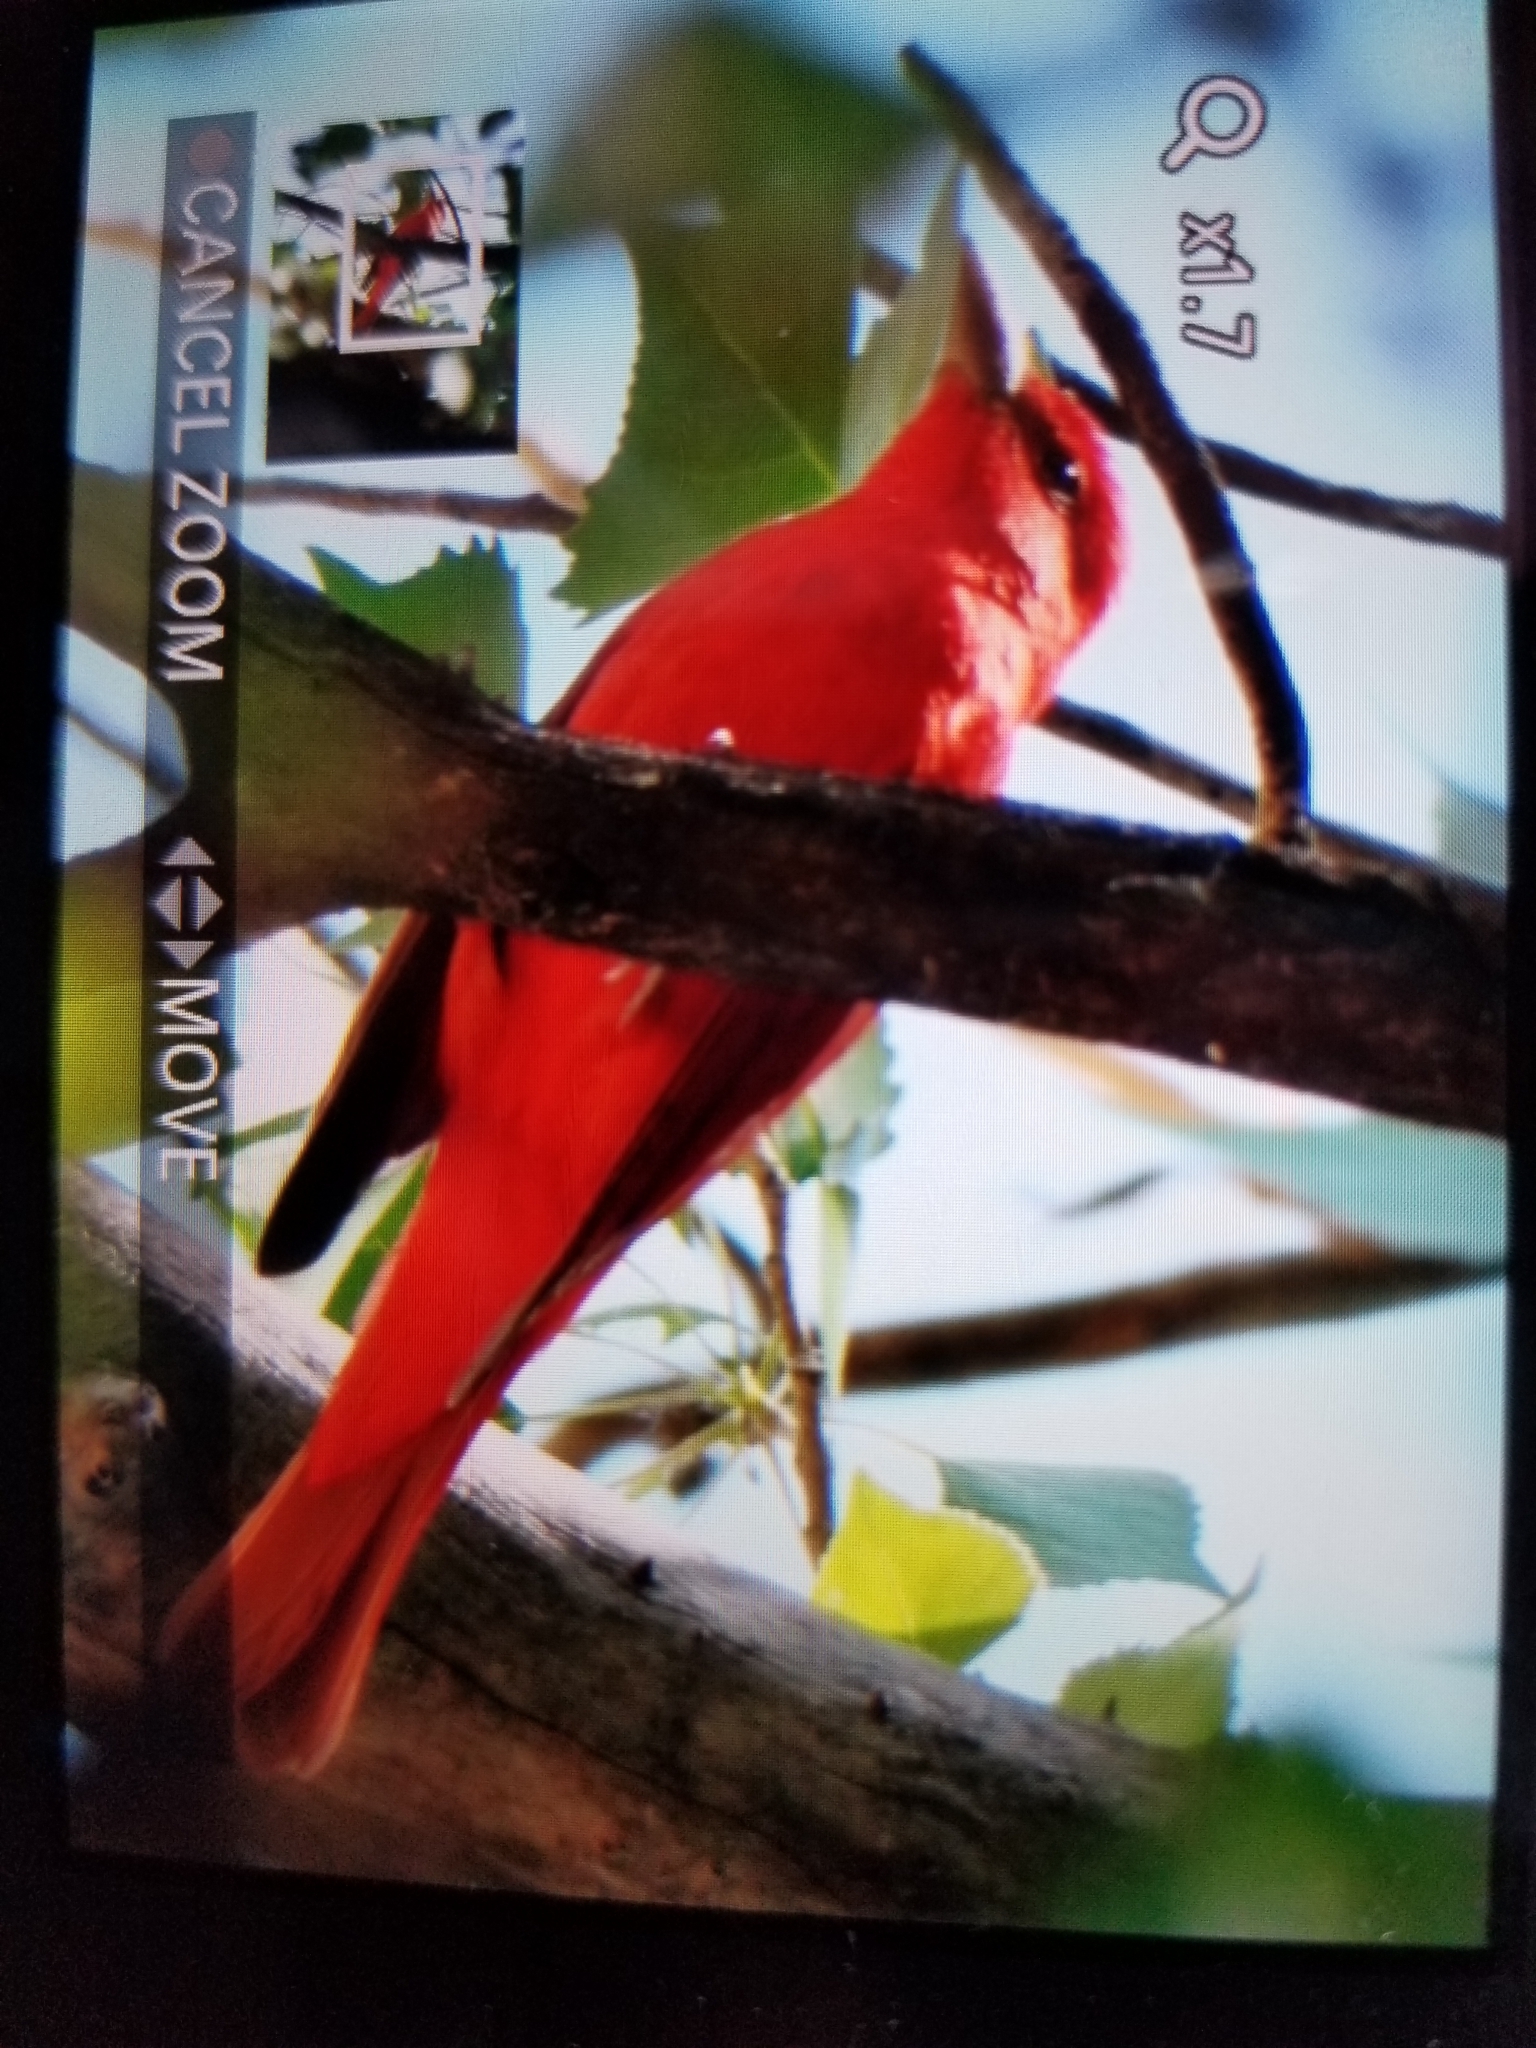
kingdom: Animalia
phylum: Chordata
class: Aves
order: Passeriformes
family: Cardinalidae
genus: Piranga
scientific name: Piranga rubra
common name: Summer tanager
